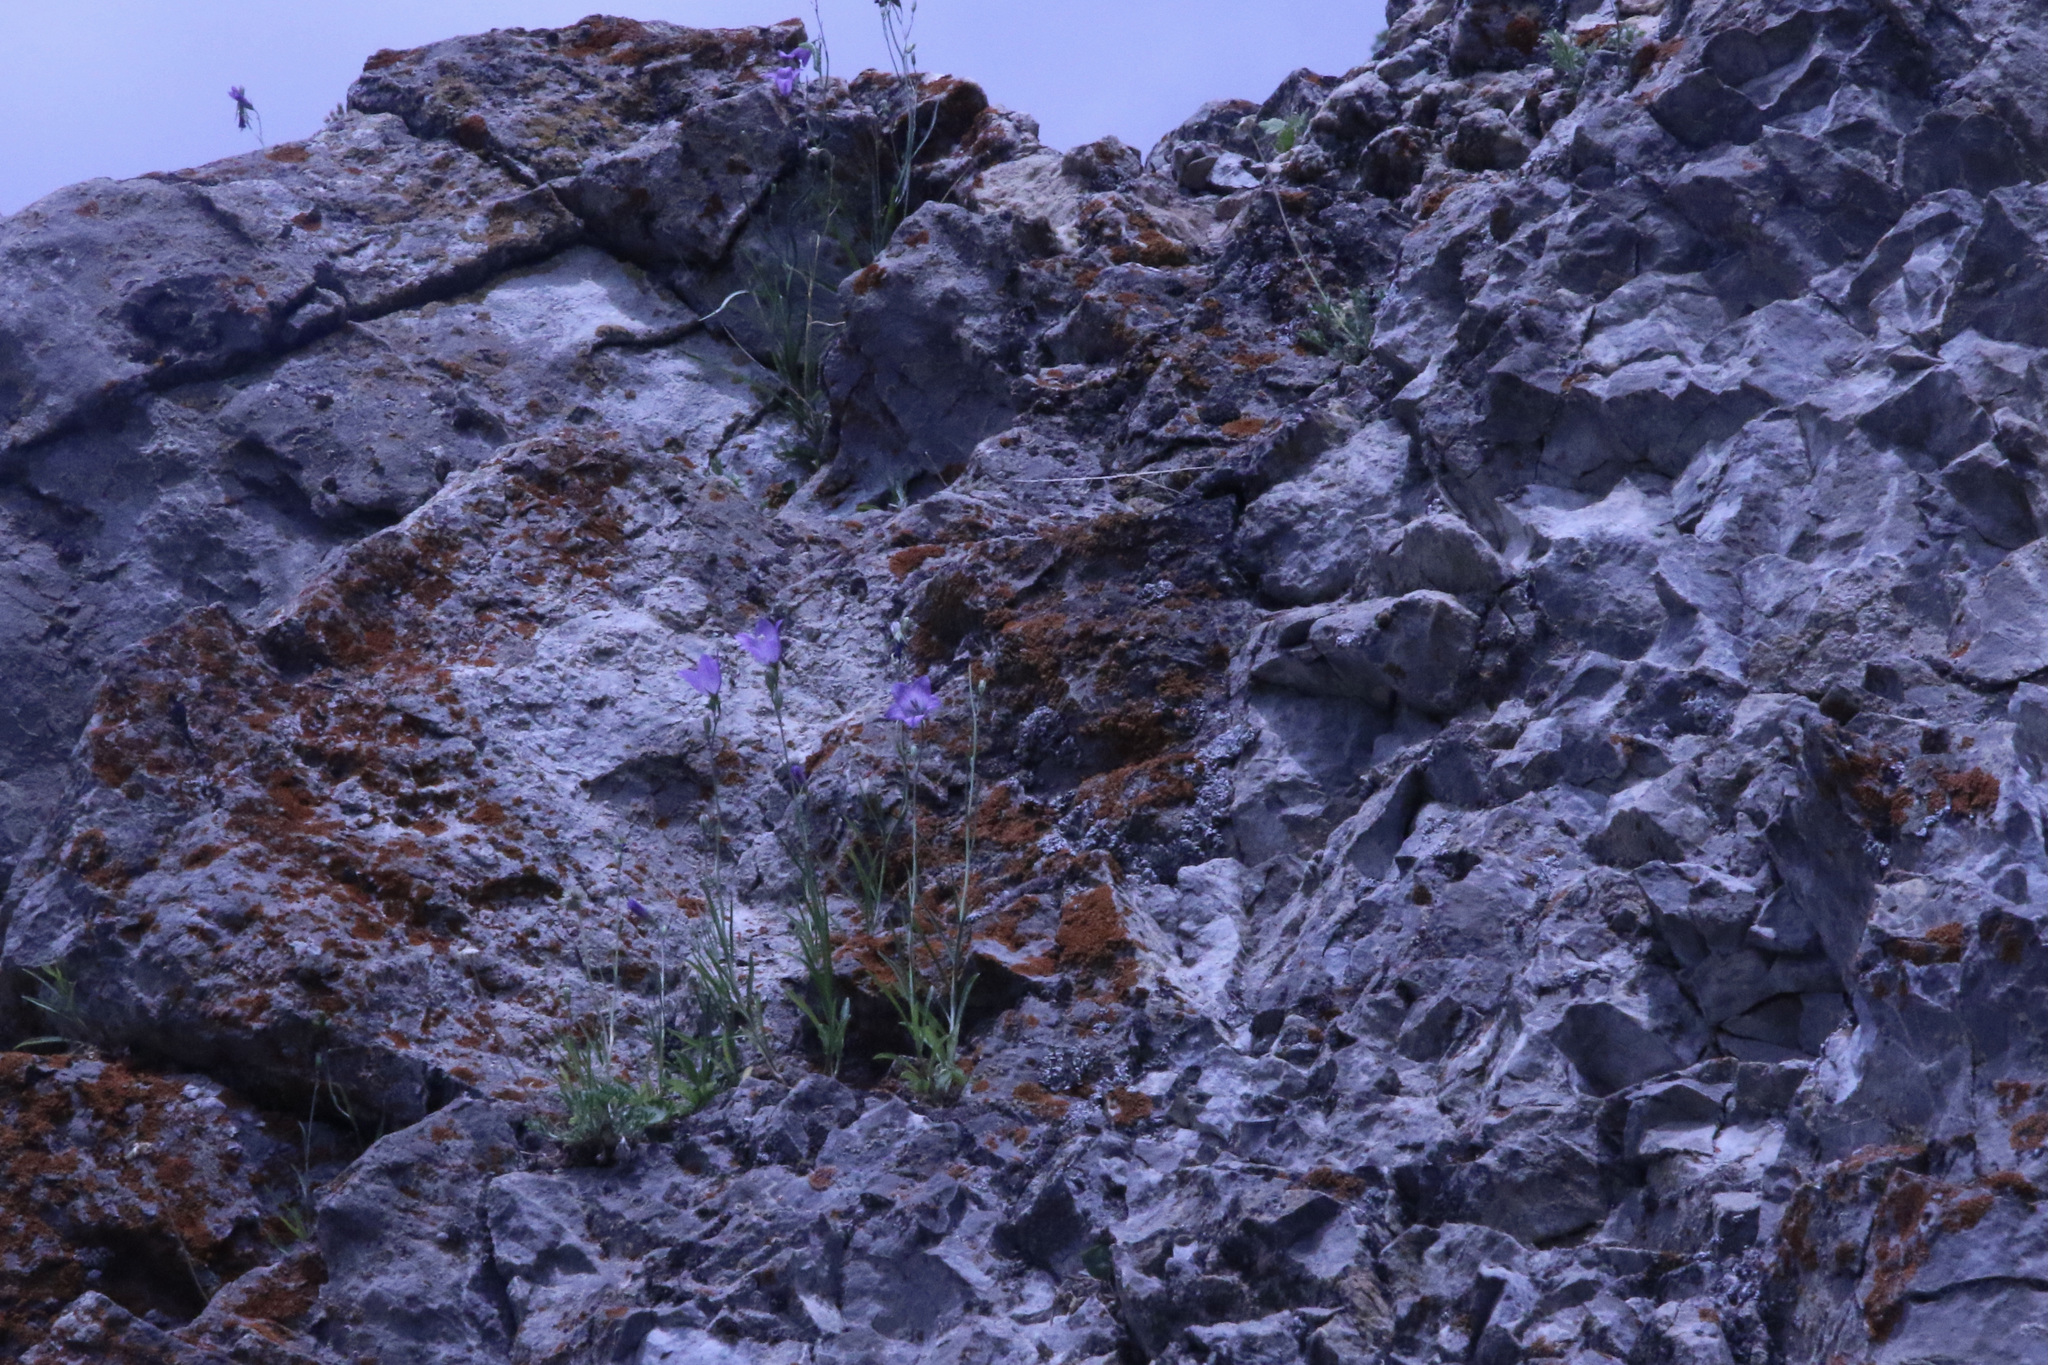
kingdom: Plantae
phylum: Tracheophyta
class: Magnoliopsida
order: Asterales
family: Campanulaceae
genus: Campanula
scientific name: Campanula petiolata
